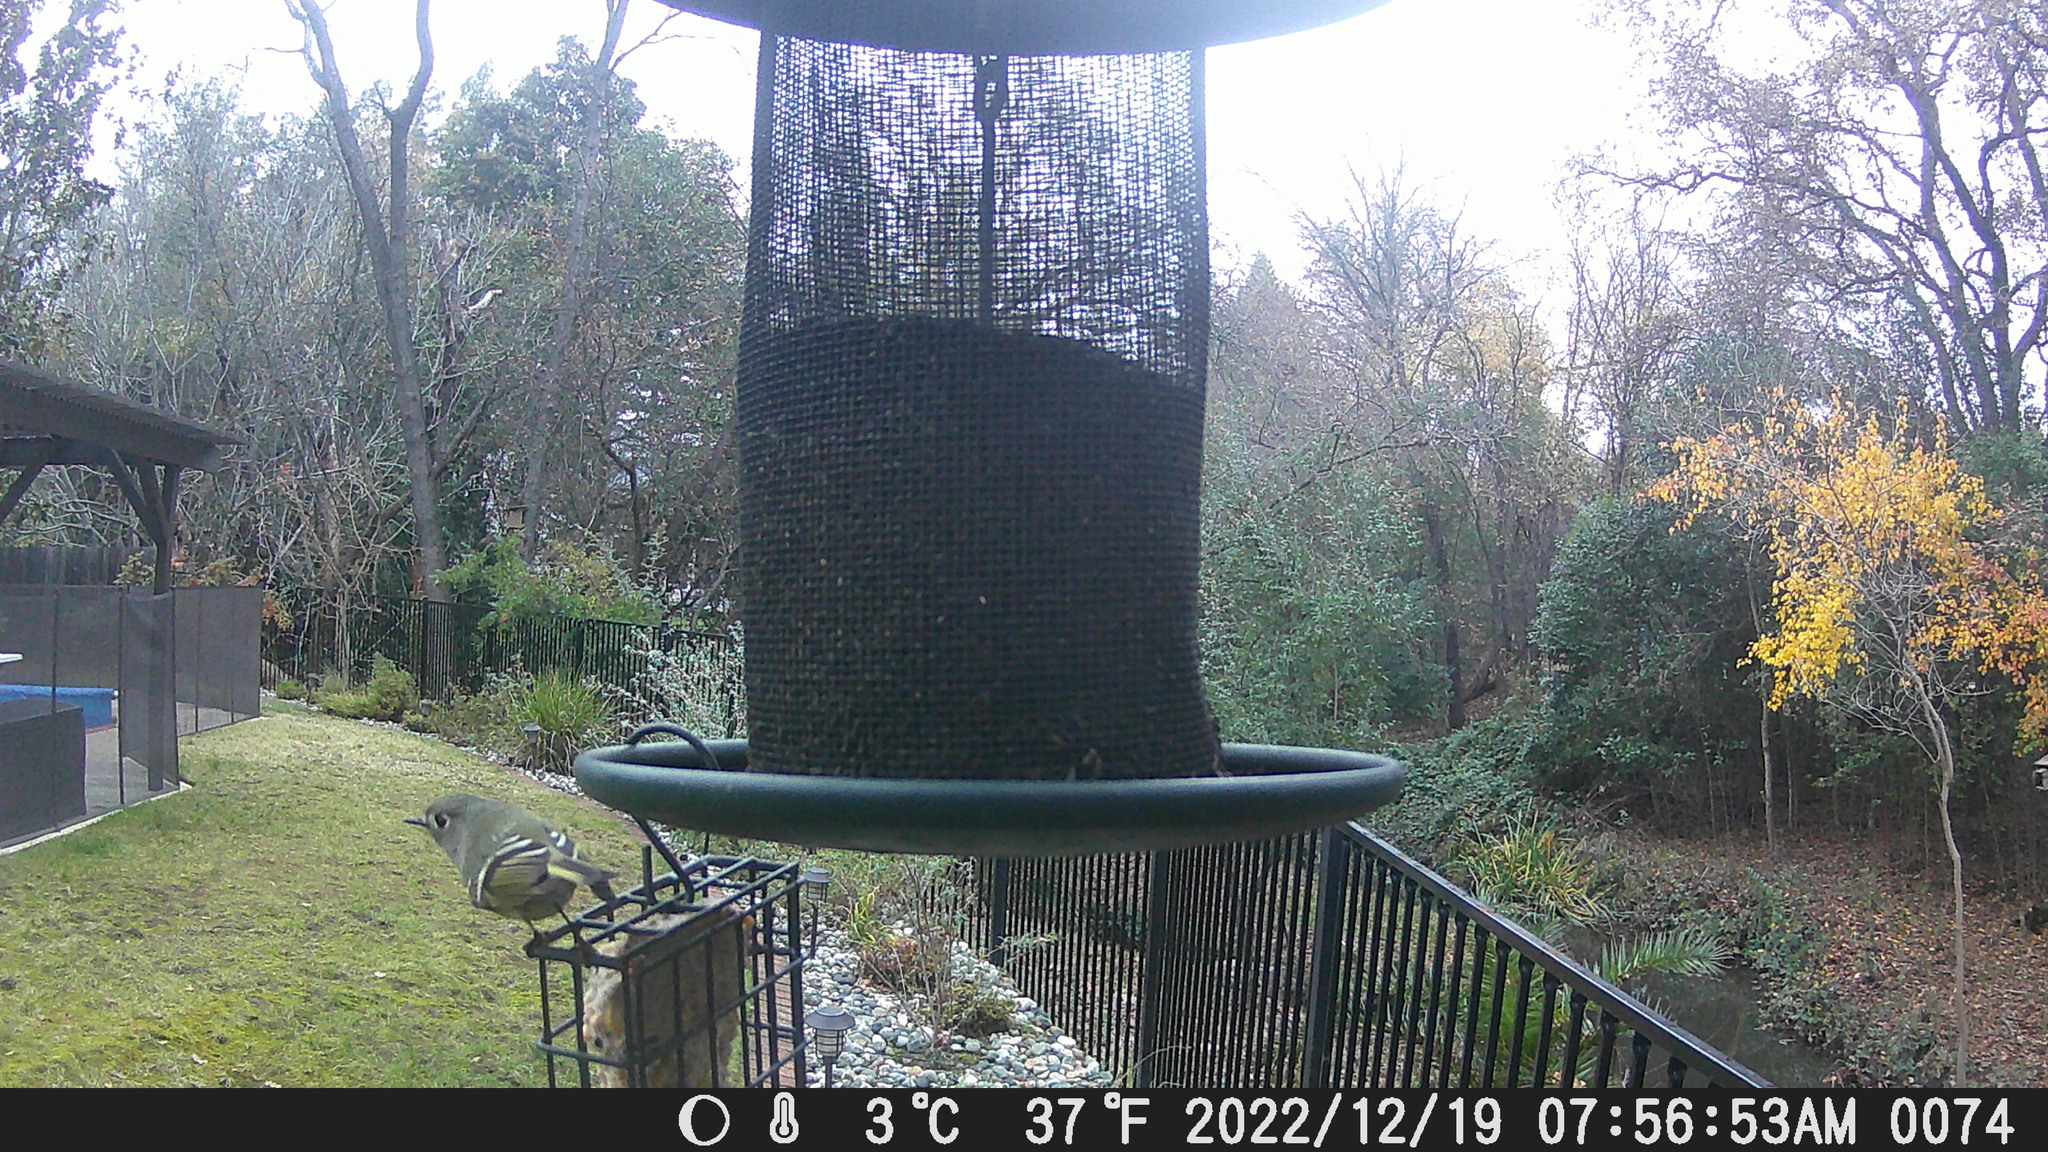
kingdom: Animalia
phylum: Chordata
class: Aves
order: Passeriformes
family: Regulidae
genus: Regulus
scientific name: Regulus calendula
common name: Ruby-crowned kinglet
